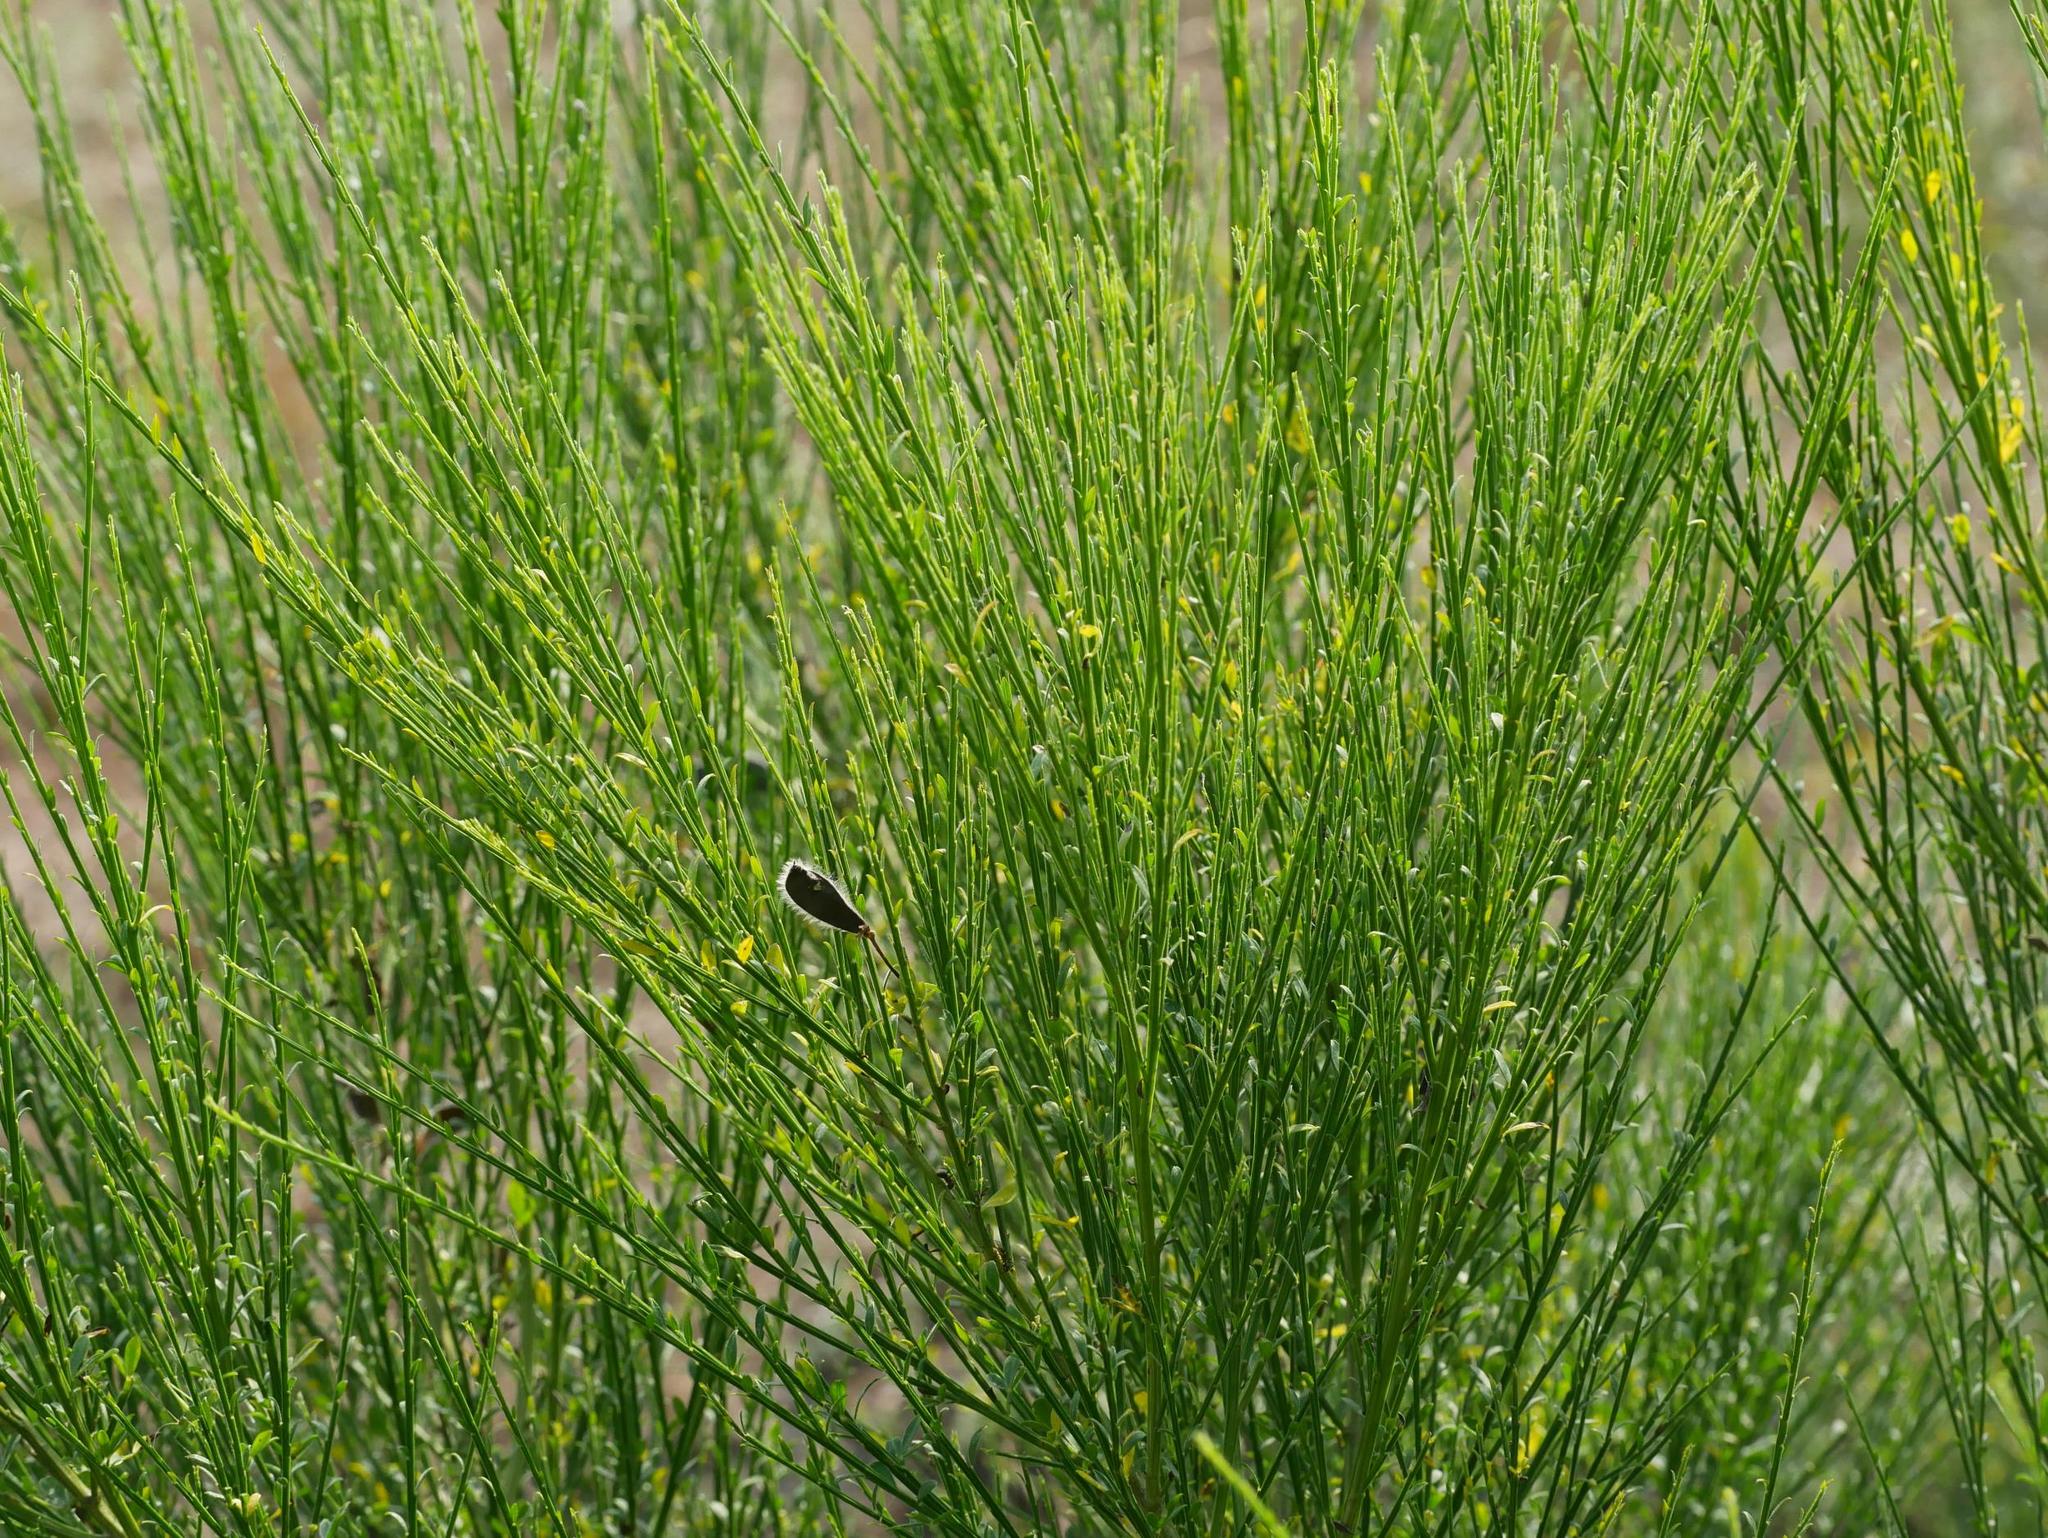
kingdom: Plantae
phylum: Tracheophyta
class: Magnoliopsida
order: Fabales
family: Fabaceae
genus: Cytisus
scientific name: Cytisus scoparius
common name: Scotch broom
